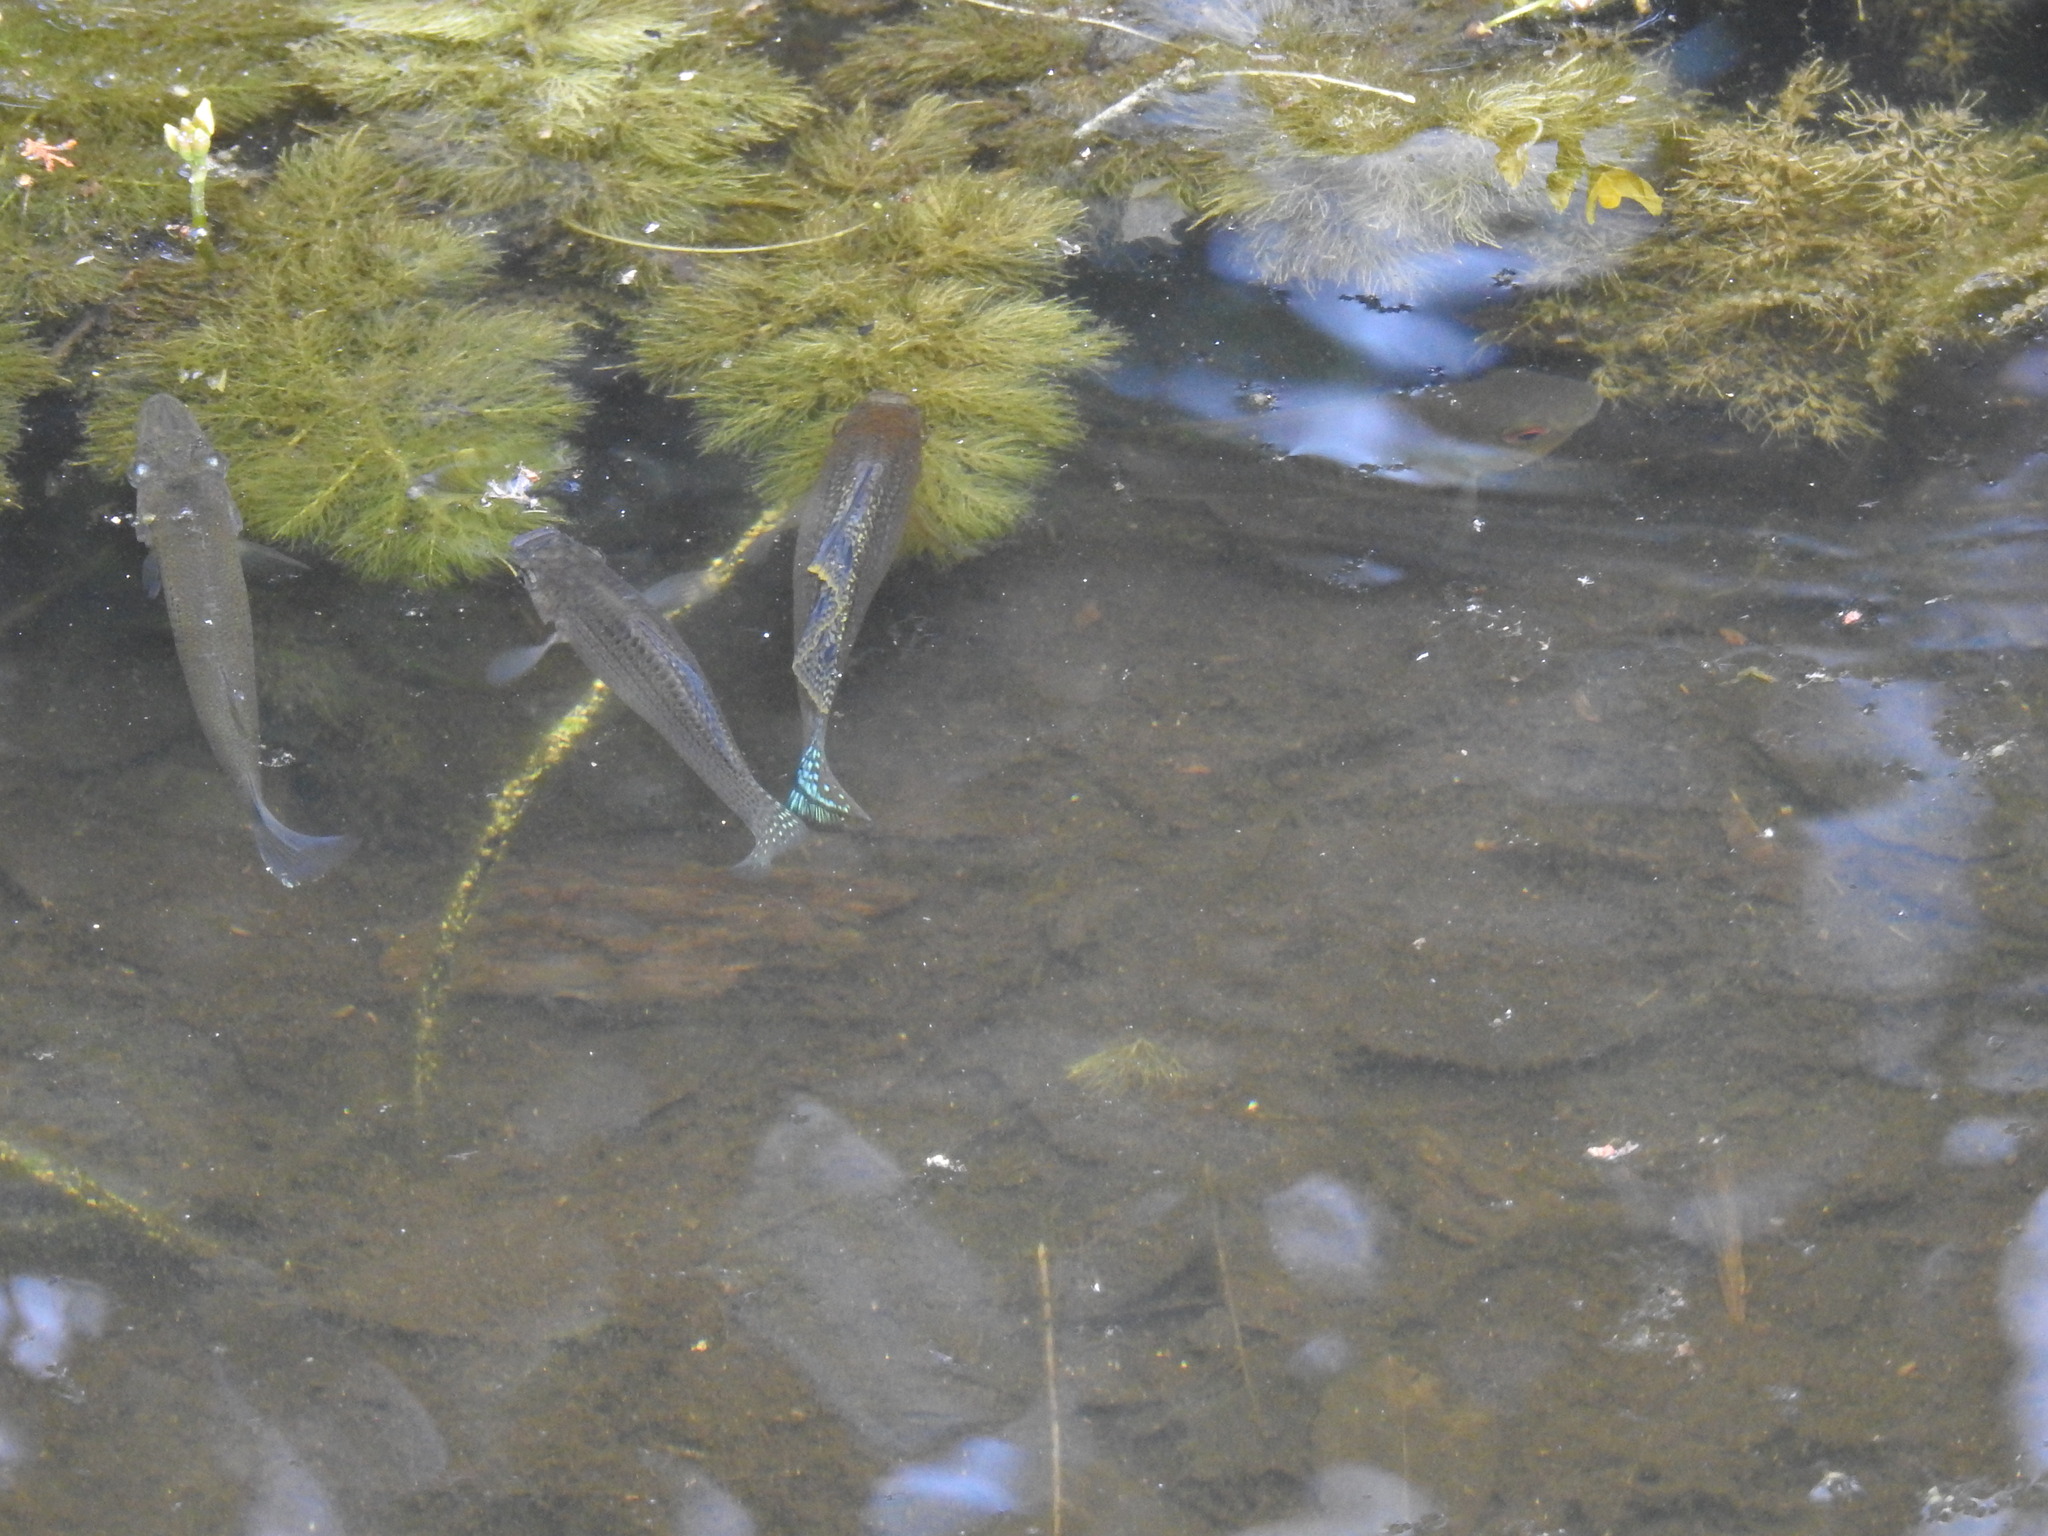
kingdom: Animalia
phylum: Chordata
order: Cyprinodontiformes
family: Poeciliidae
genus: Poecilia
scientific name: Poecilia latipinna
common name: Sailfin molly
